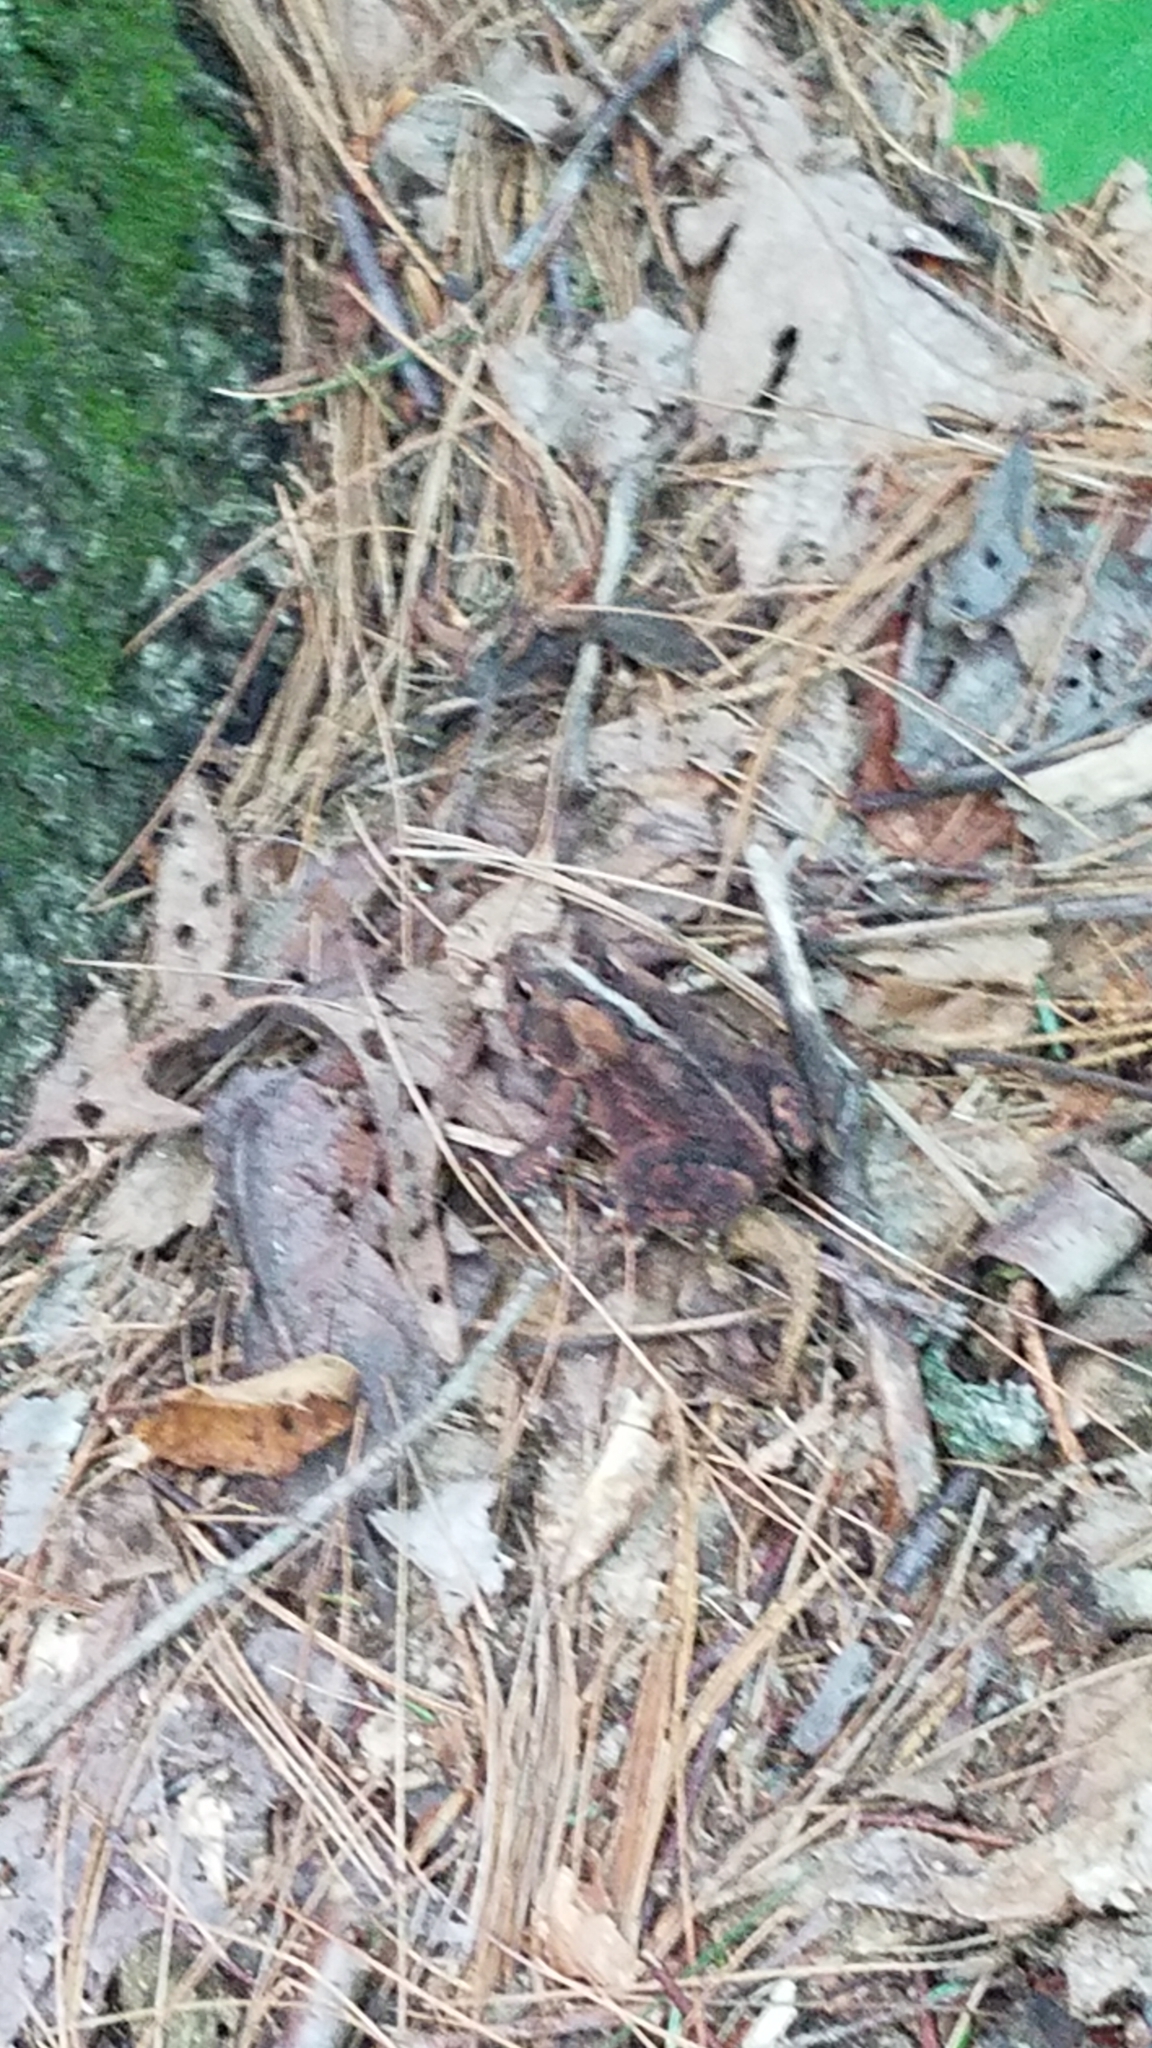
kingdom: Animalia
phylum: Chordata
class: Amphibia
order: Anura
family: Bufonidae
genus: Anaxyrus
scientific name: Anaxyrus americanus
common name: American toad
